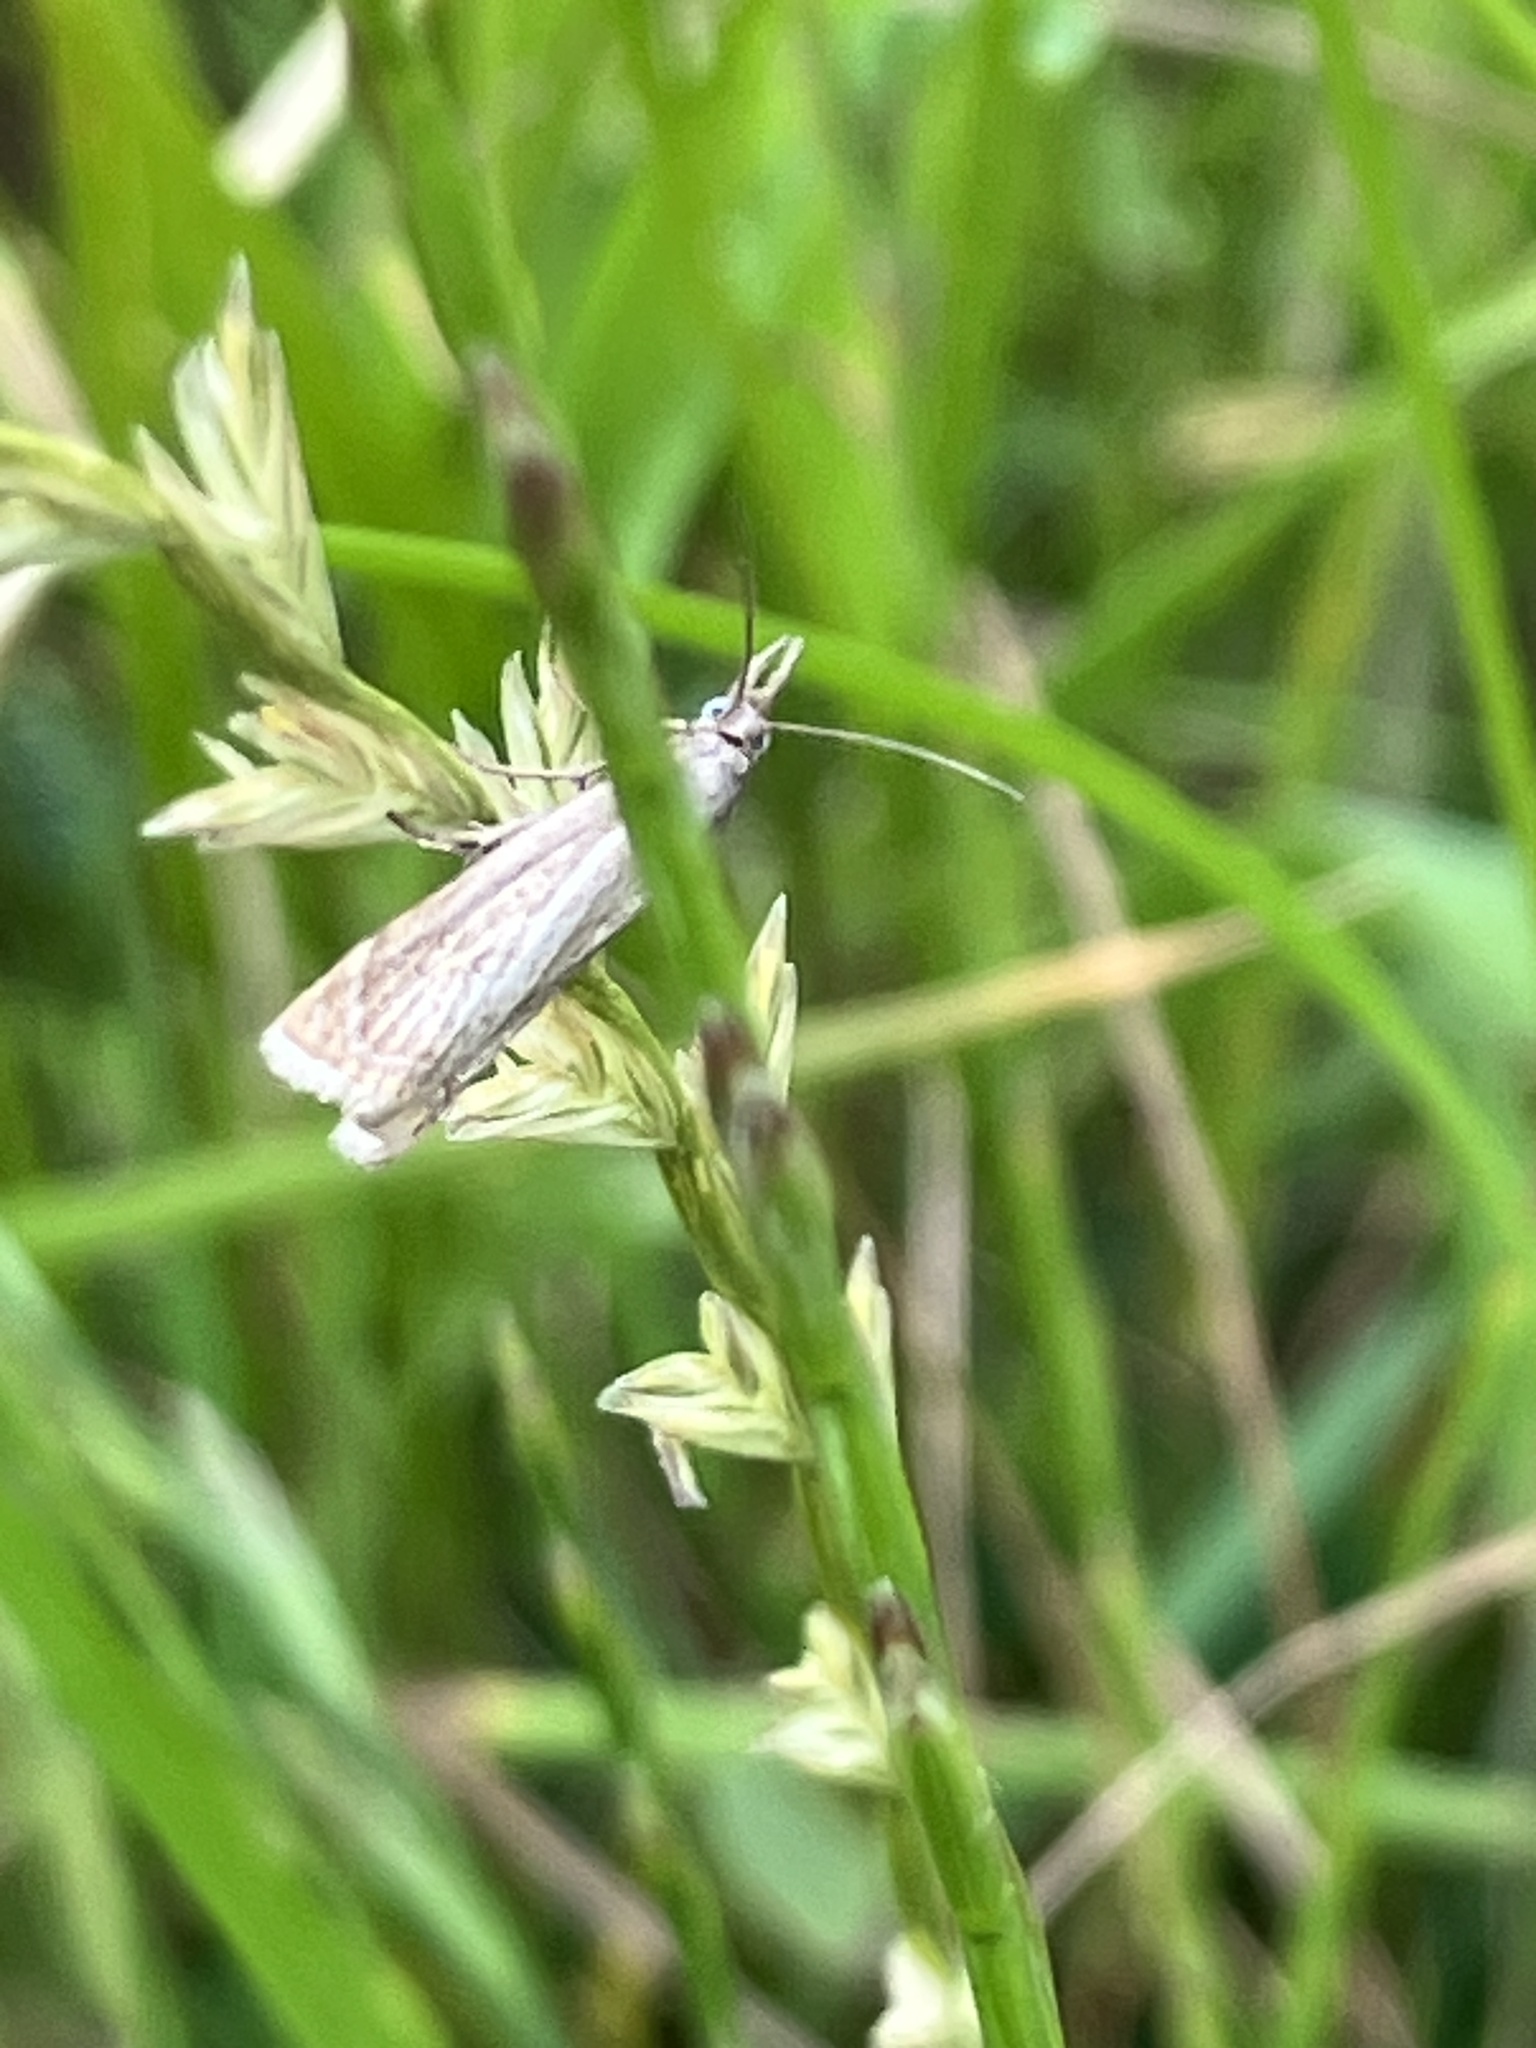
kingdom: Animalia
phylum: Arthropoda
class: Insecta
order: Lepidoptera
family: Crambidae
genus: Chrysoteuchia
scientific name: Chrysoteuchia culmella
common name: Garden grass-veneer
